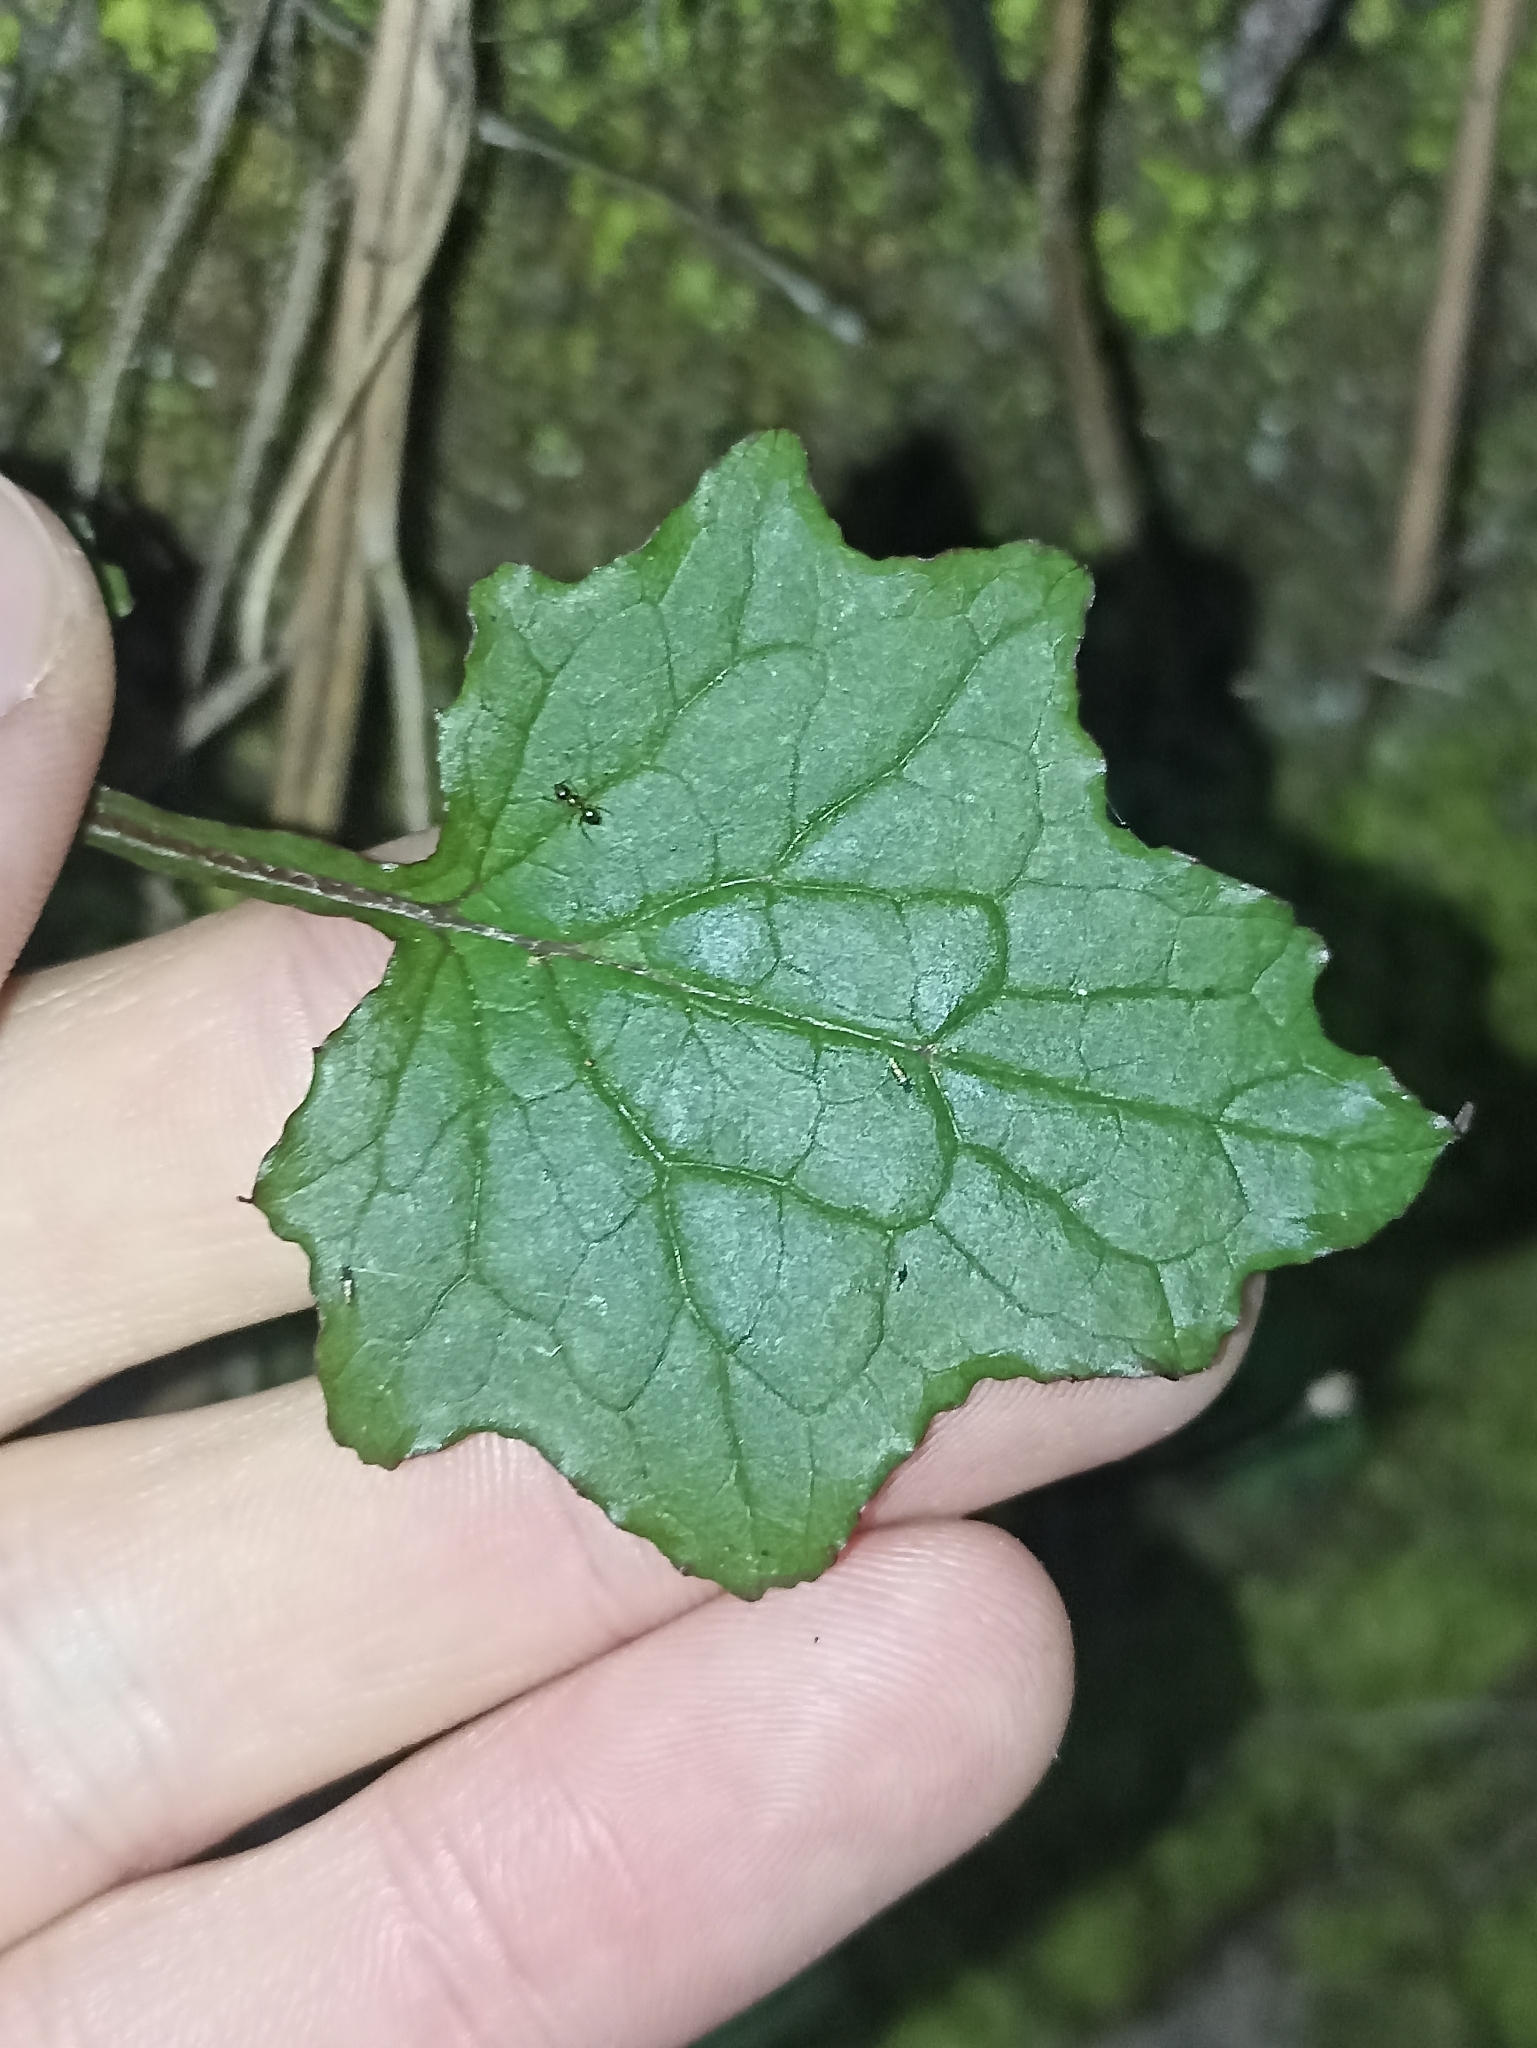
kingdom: Plantae
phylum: Tracheophyta
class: Magnoliopsida
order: Asterales
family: Asteraceae
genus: Mycelis
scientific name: Mycelis muralis
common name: Wall lettuce
